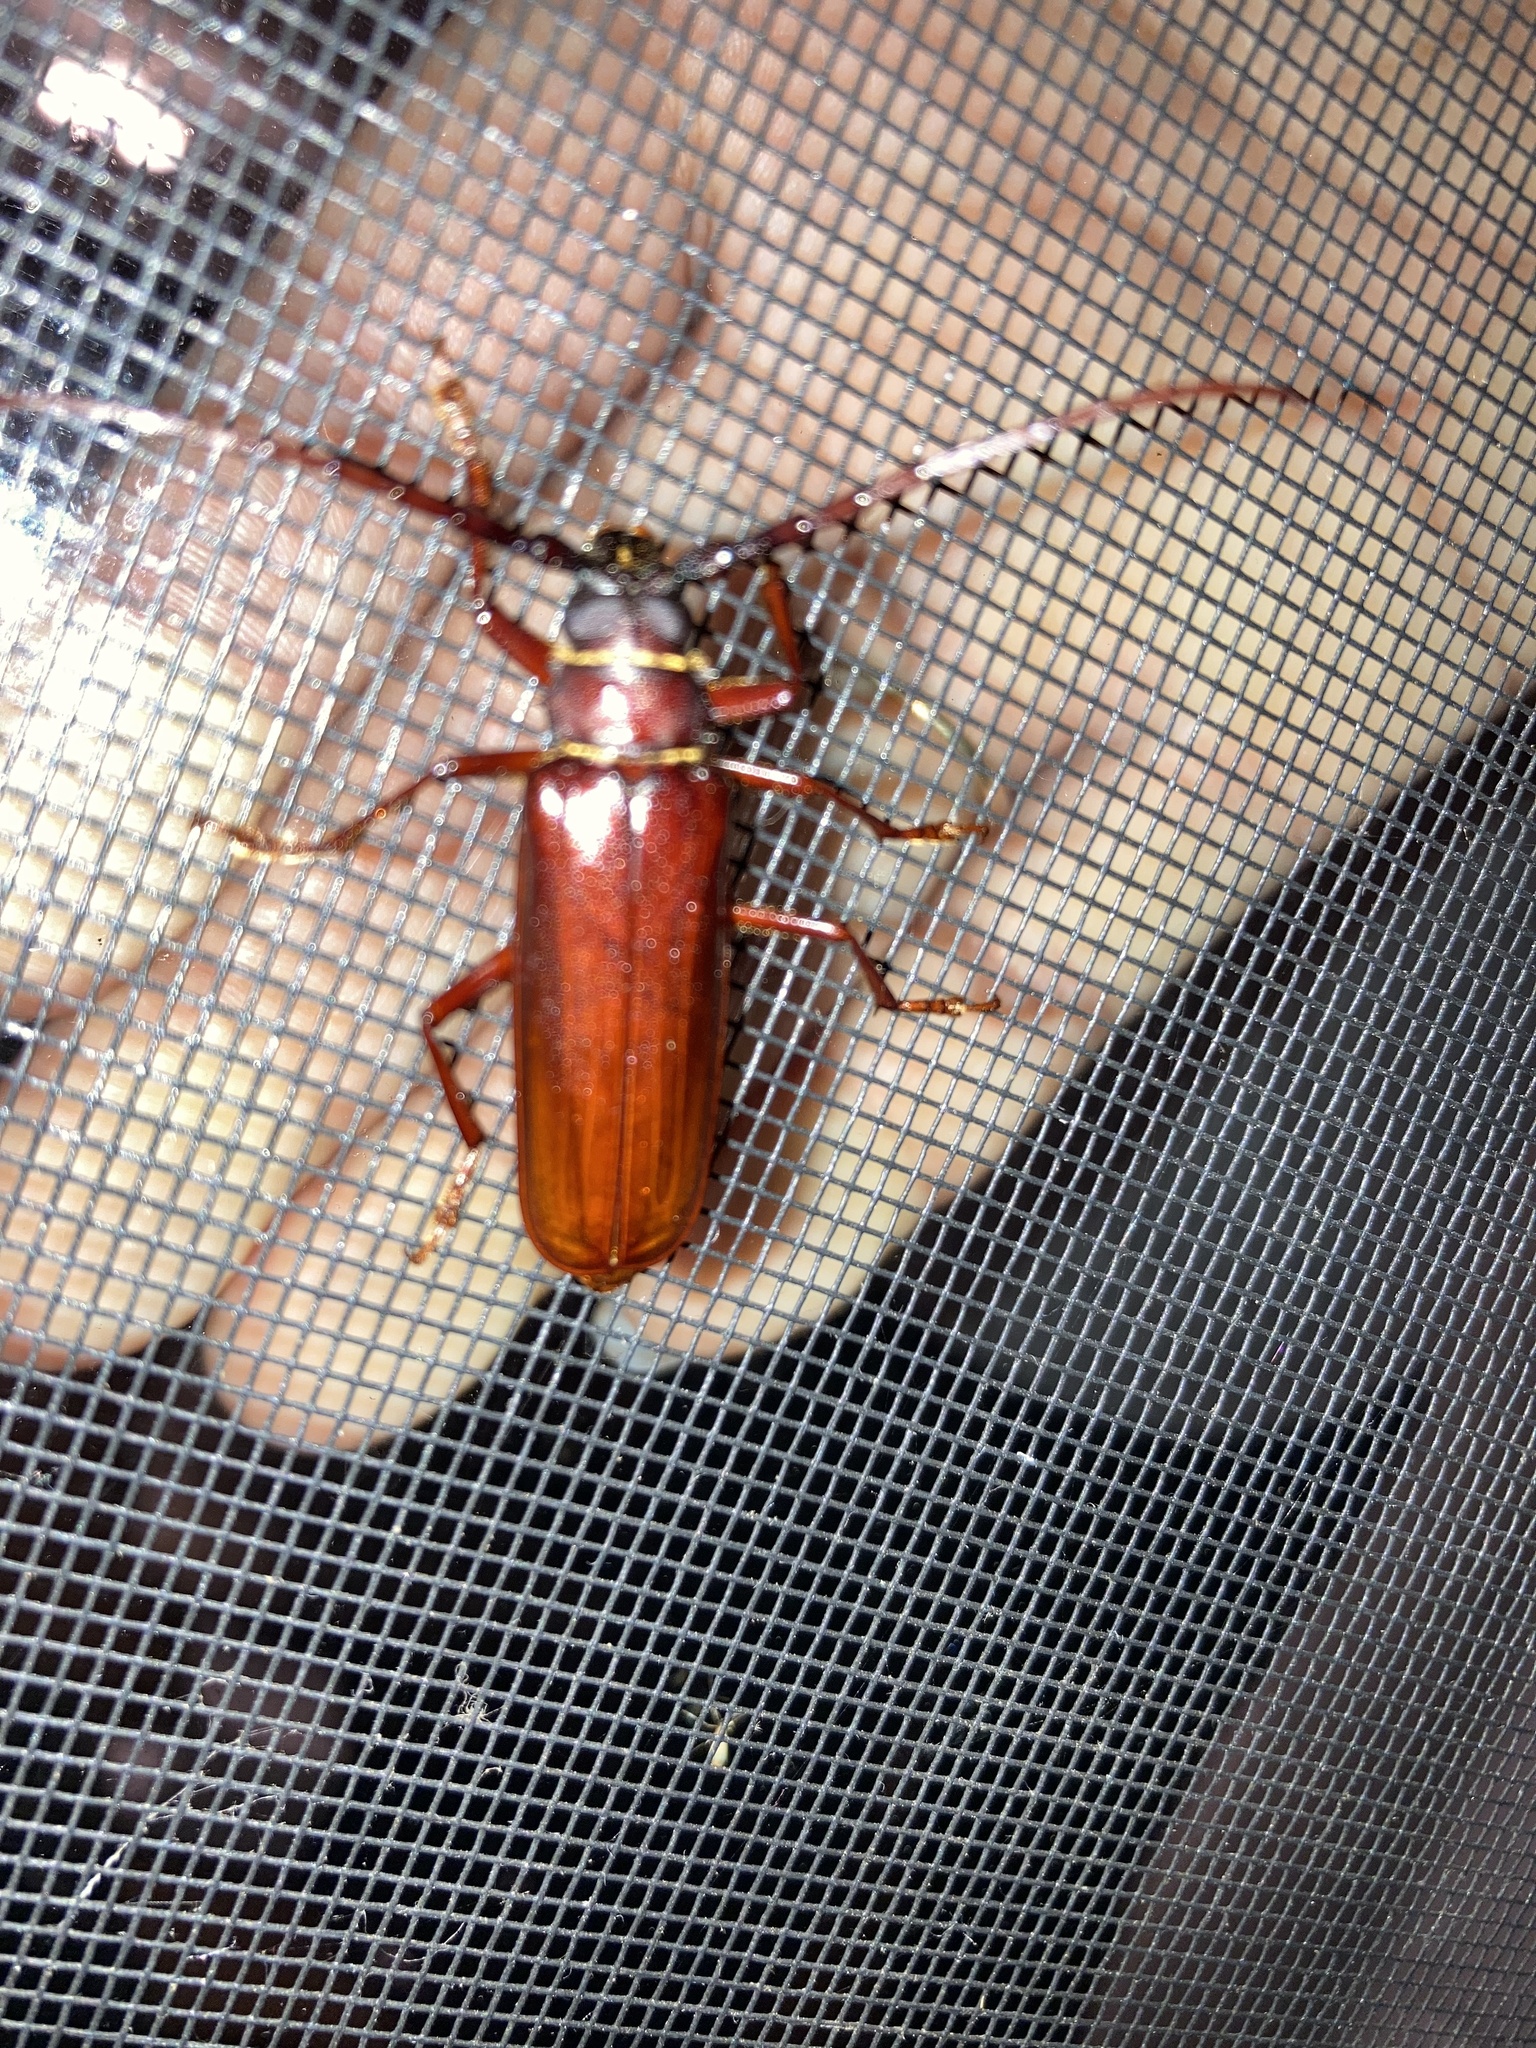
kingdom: Animalia
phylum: Arthropoda
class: Insecta
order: Coleoptera
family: Cerambycidae
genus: Orthosoma
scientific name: Orthosoma brunneum
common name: Brown prionid beetle
